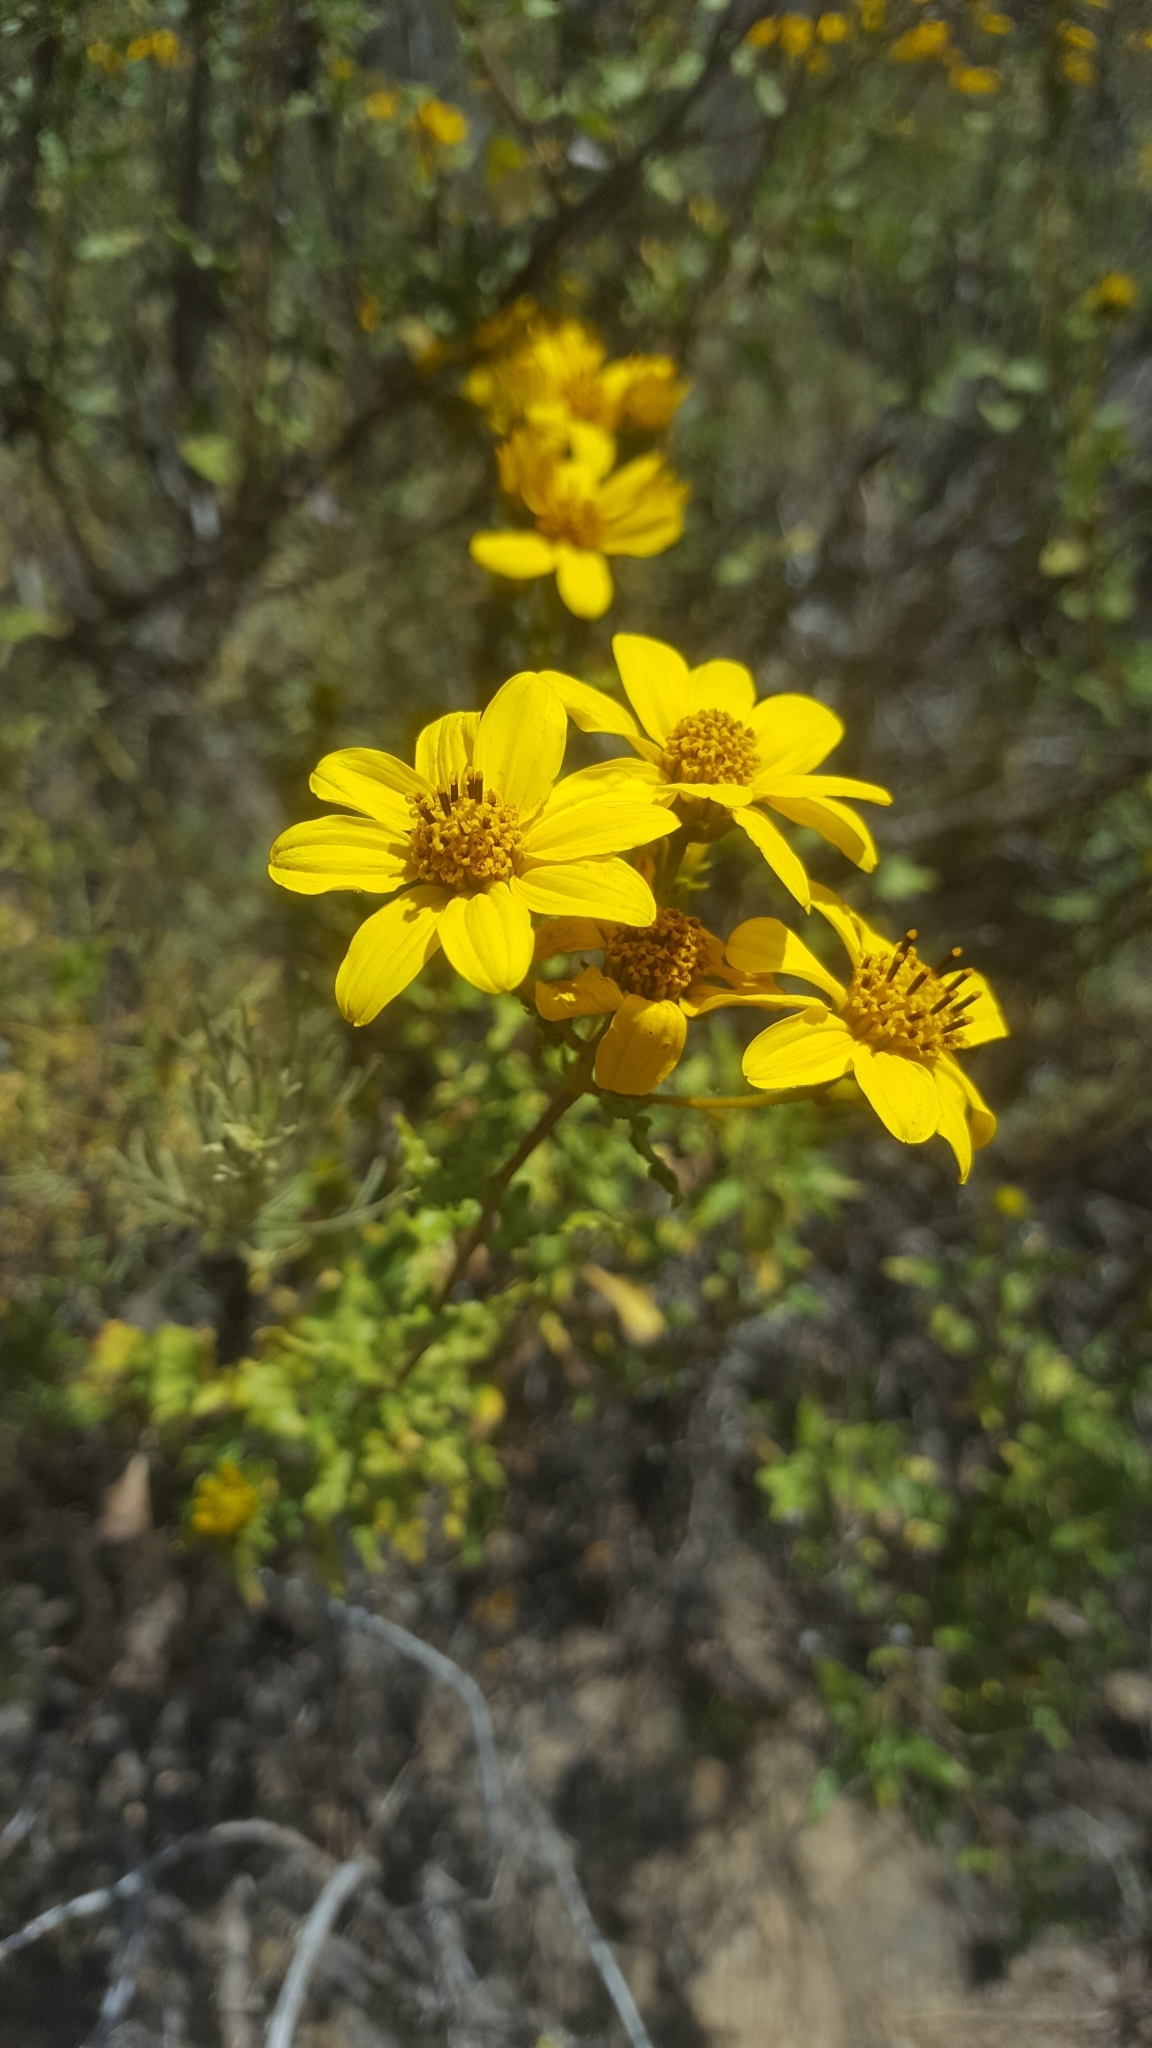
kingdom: Plantae
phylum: Tracheophyta
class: Magnoliopsida
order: Asterales
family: Asteraceae
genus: Bahiopsis
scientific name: Bahiopsis laciniata
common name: San diego county viguiera
